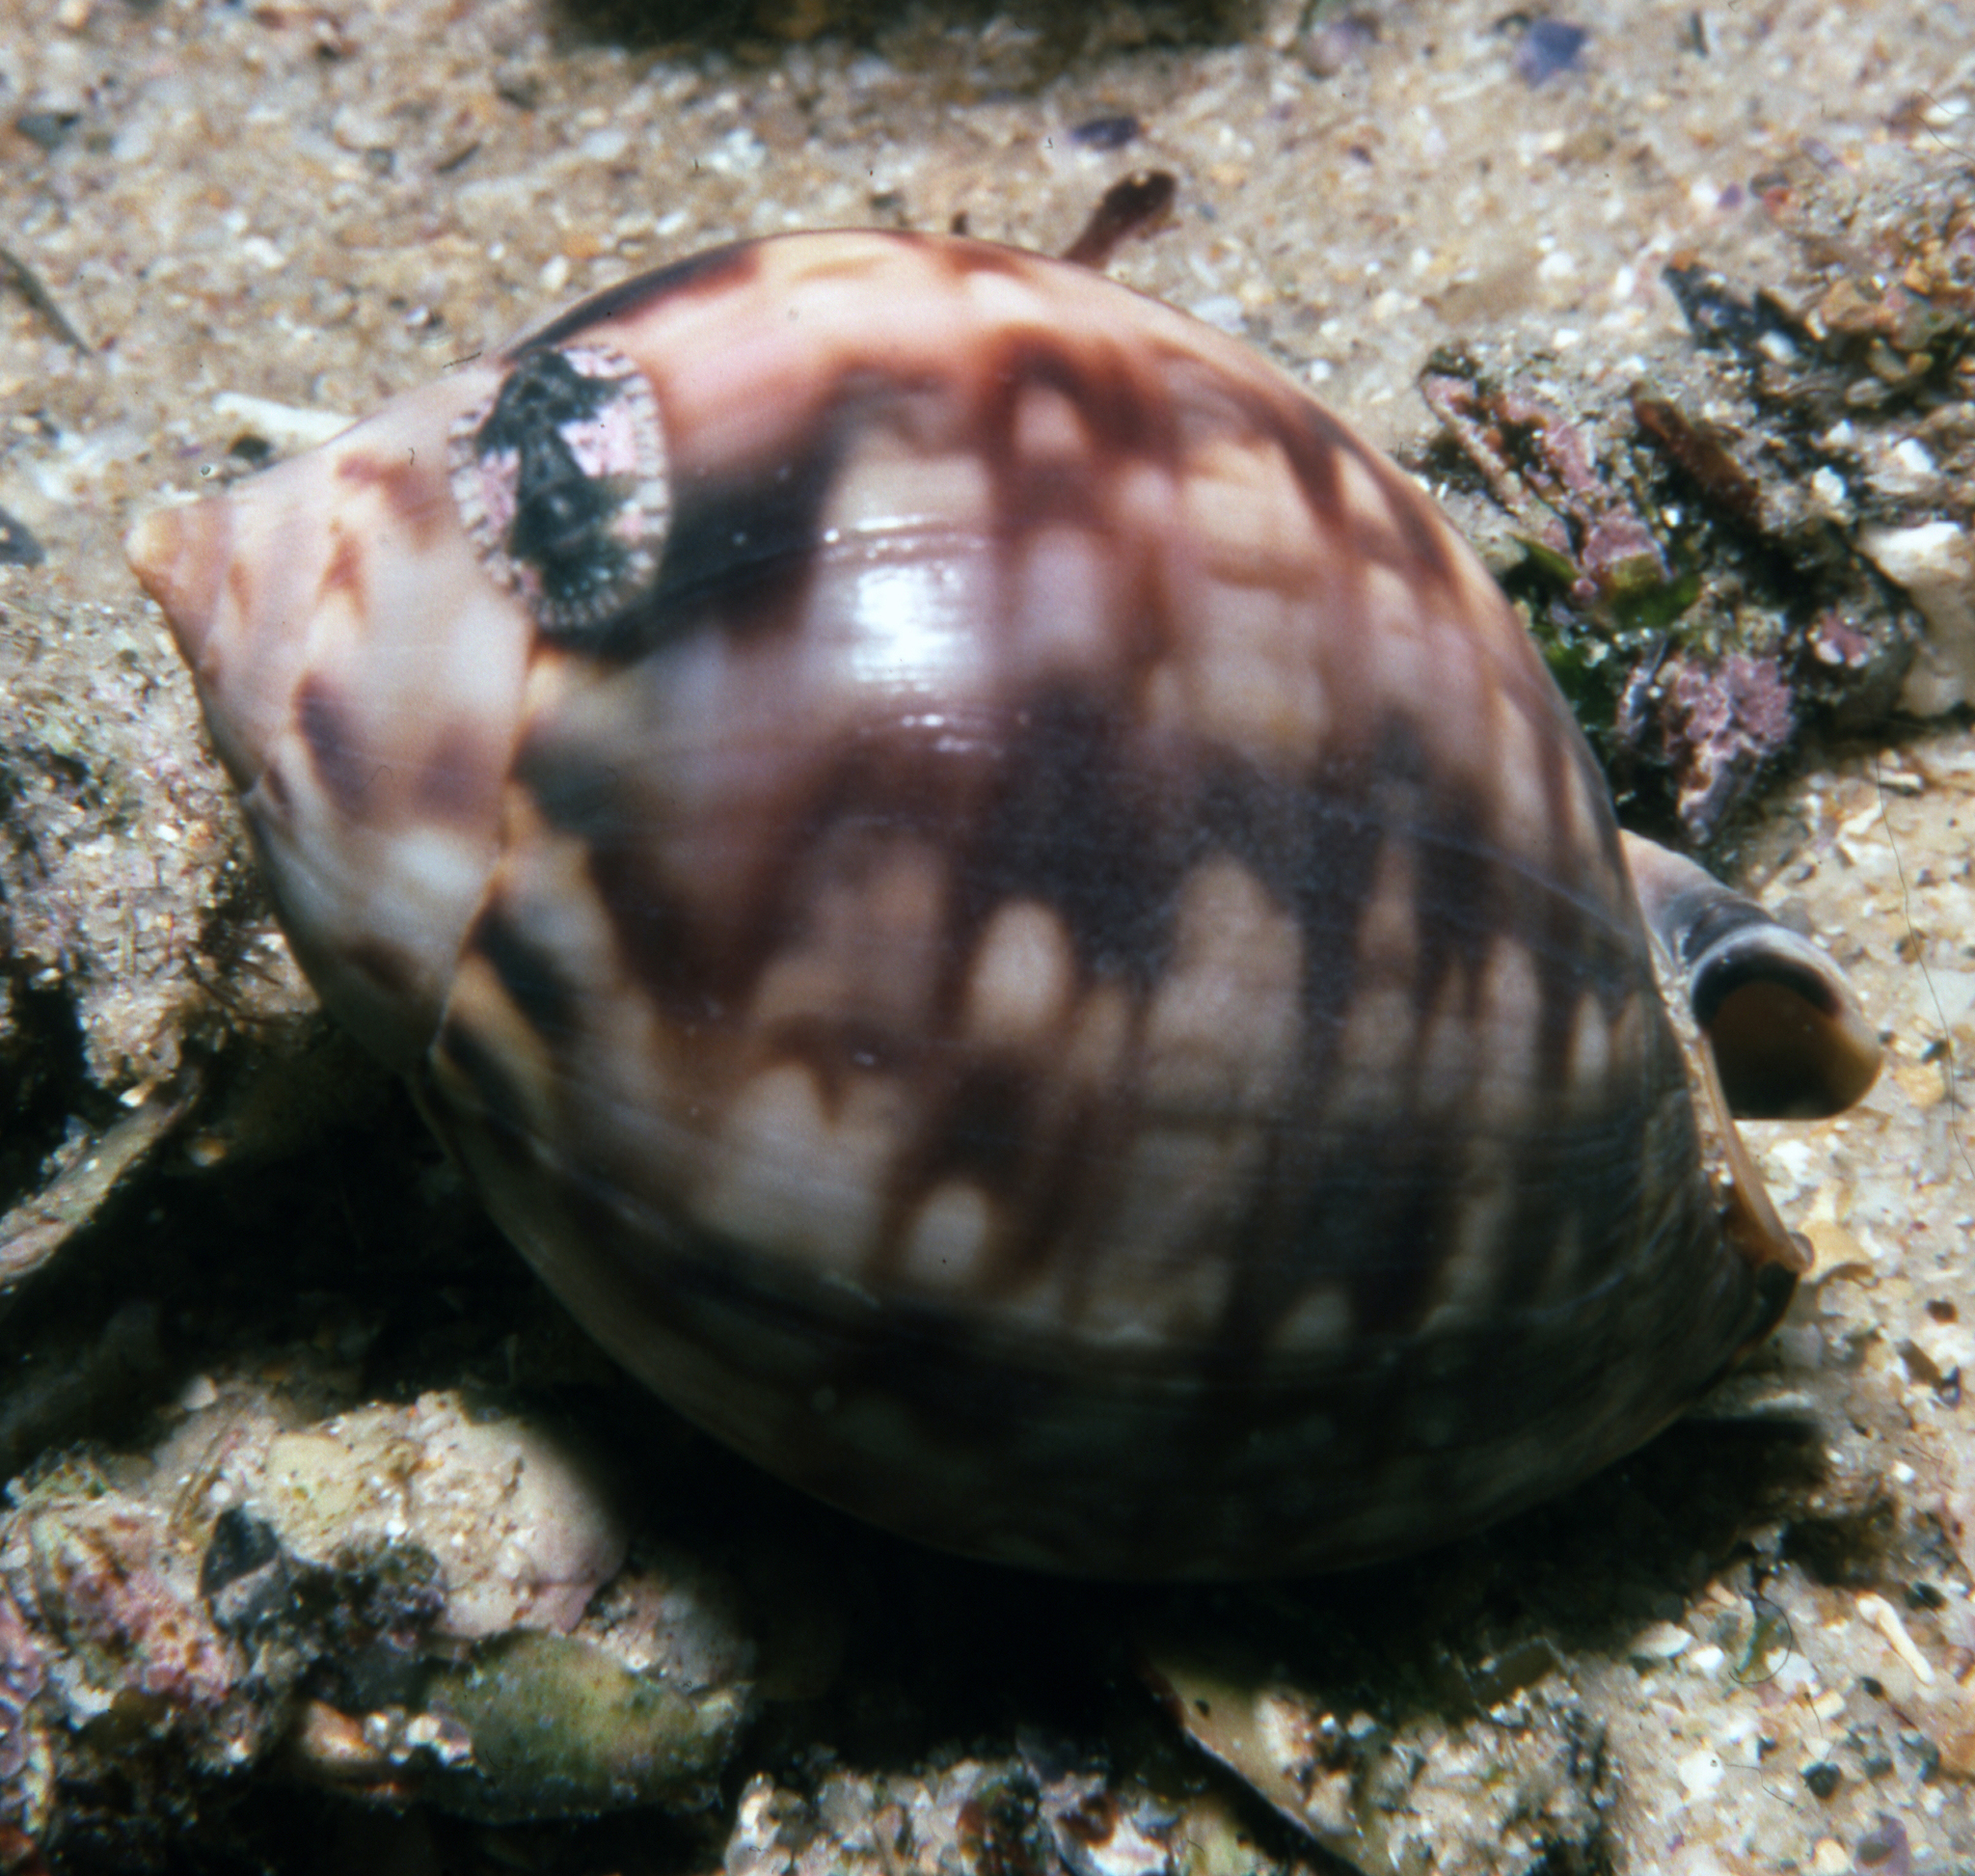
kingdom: Animalia
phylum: Mollusca
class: Gastropoda
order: Littorinimorpha
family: Cassidae
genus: Semicassis
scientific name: Semicassis labiata
